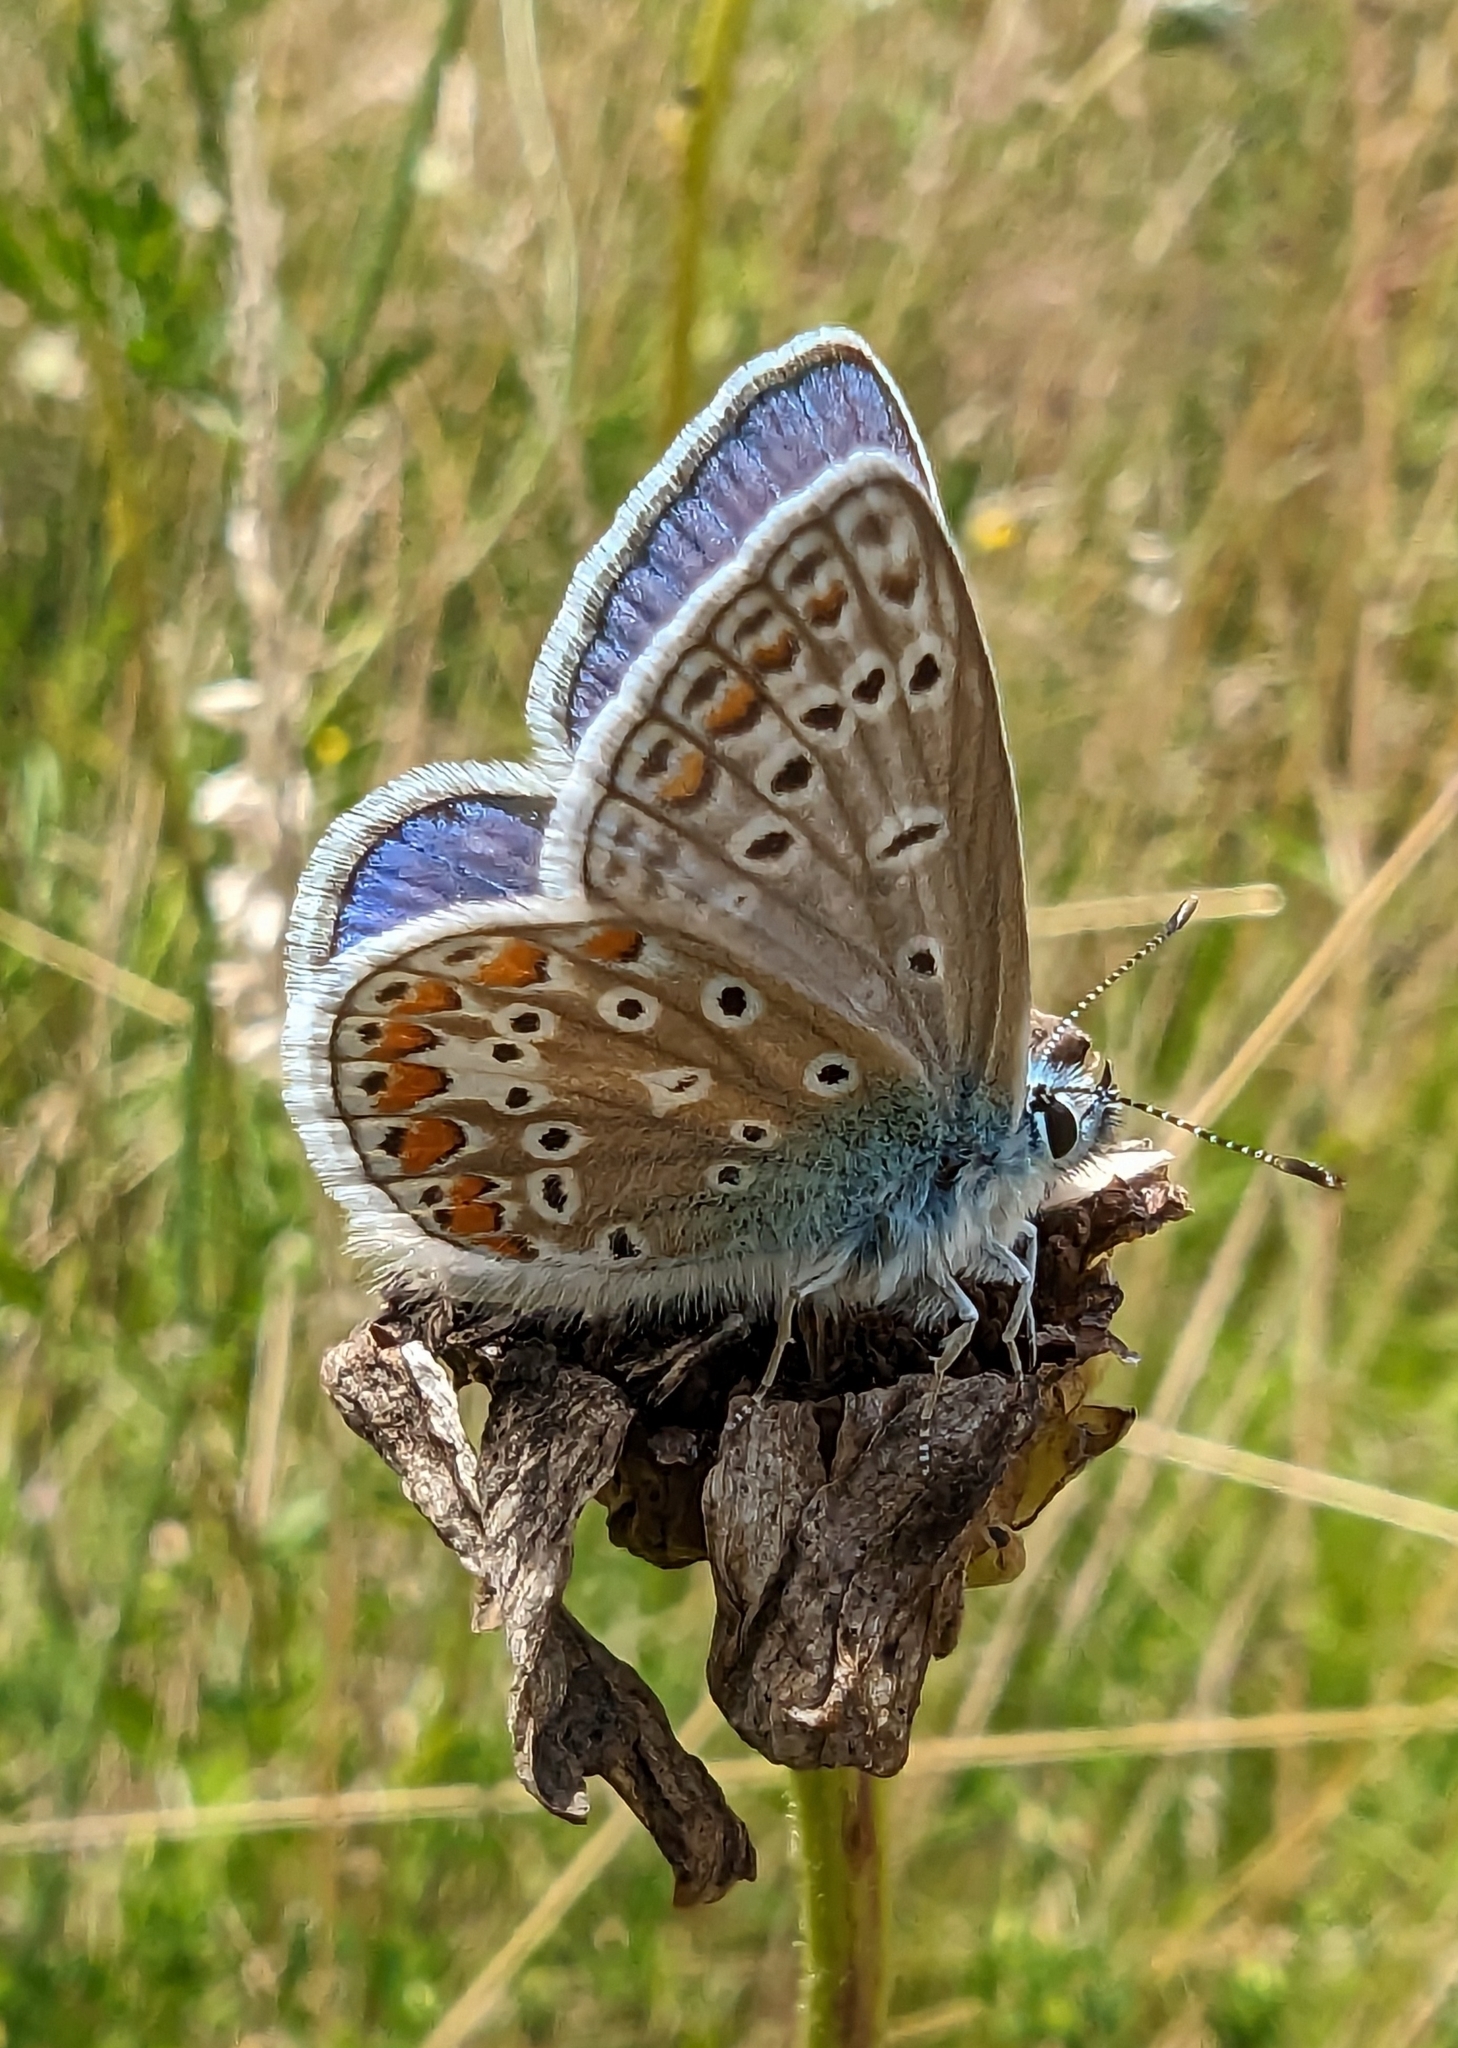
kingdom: Animalia
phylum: Arthropoda
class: Insecta
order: Lepidoptera
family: Lycaenidae
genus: Polyommatus
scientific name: Polyommatus icarus
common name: Common blue
